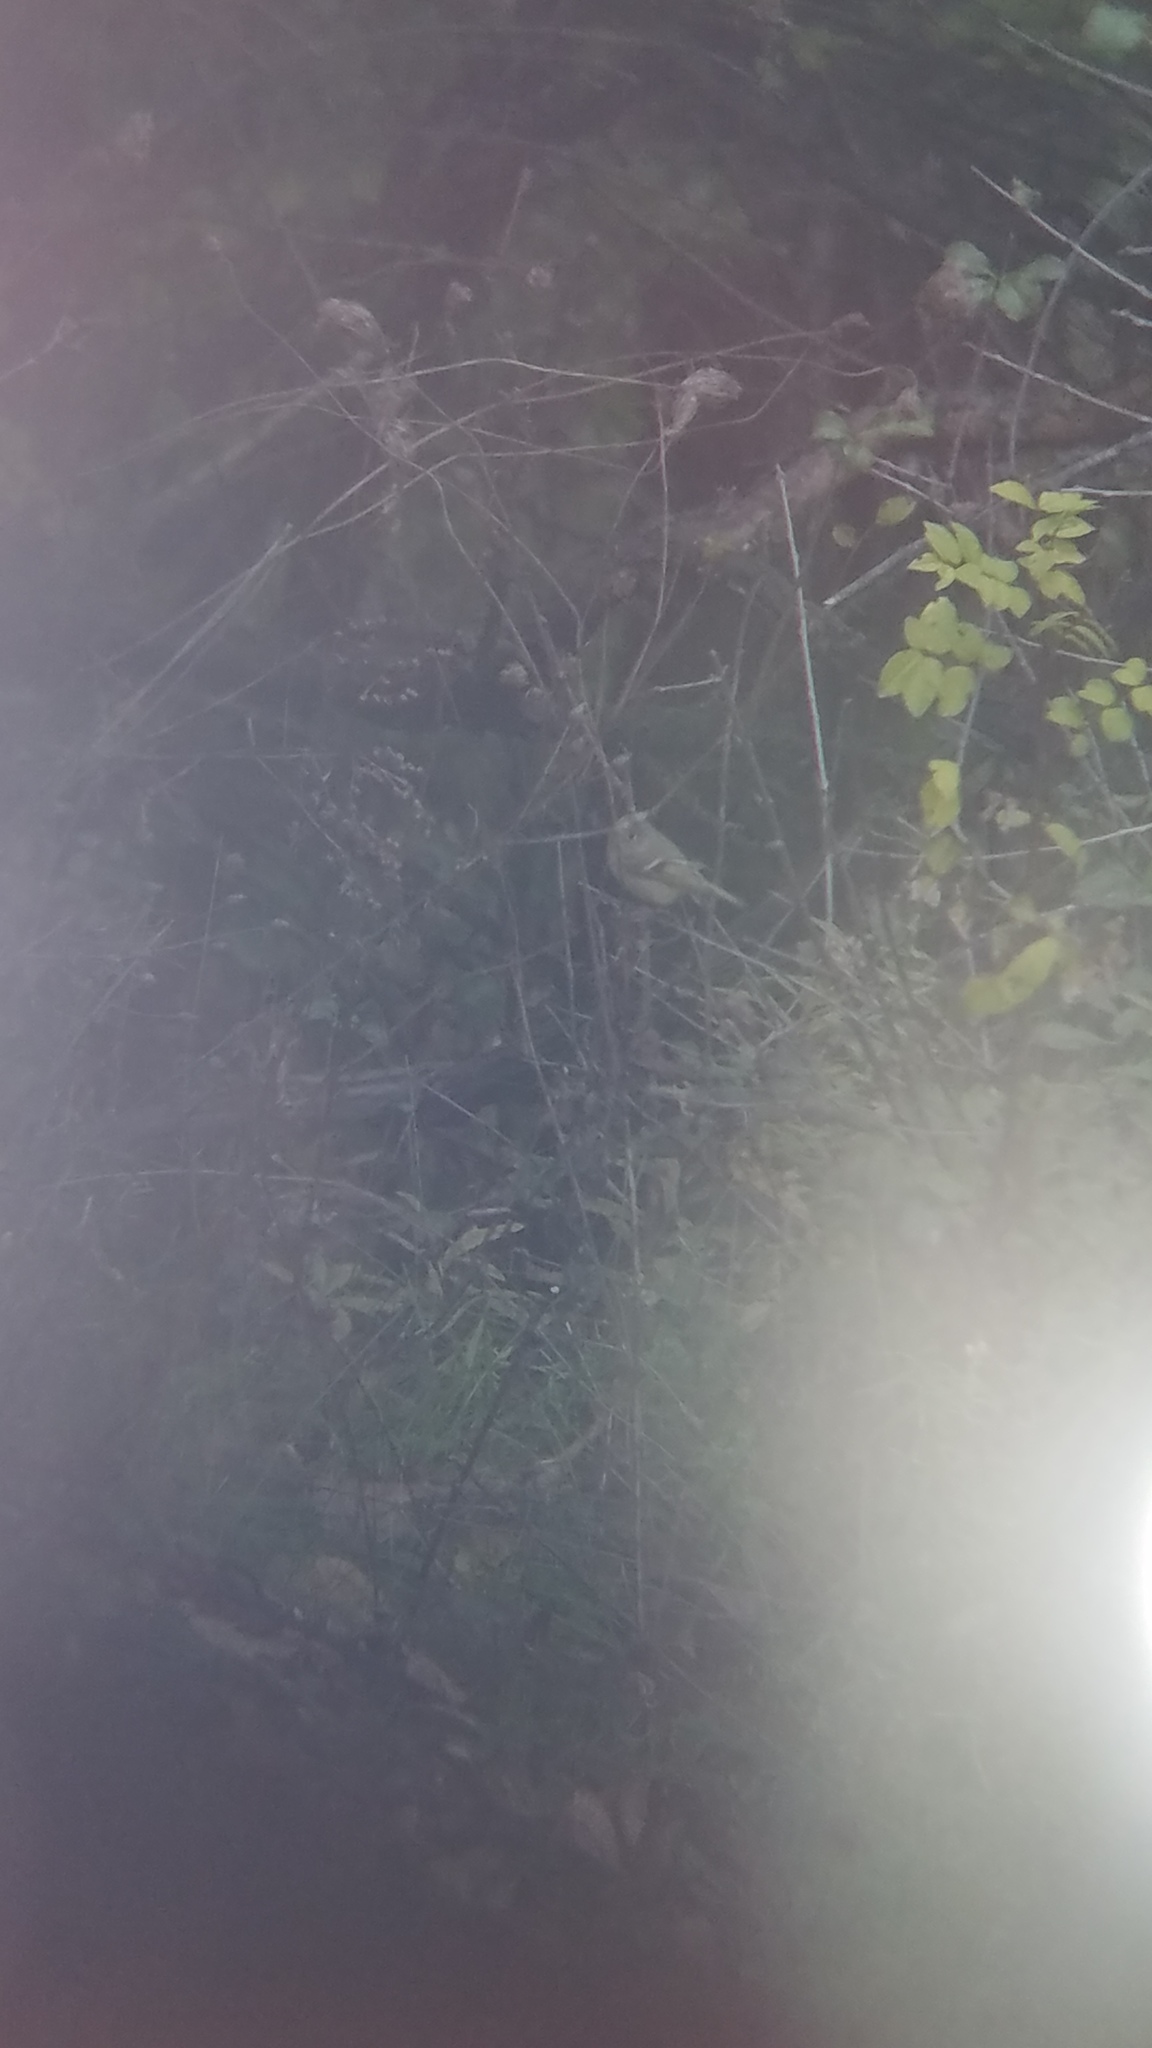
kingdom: Animalia
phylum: Chordata
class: Aves
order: Passeriformes
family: Regulidae
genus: Regulus
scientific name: Regulus calendula
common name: Ruby-crowned kinglet
